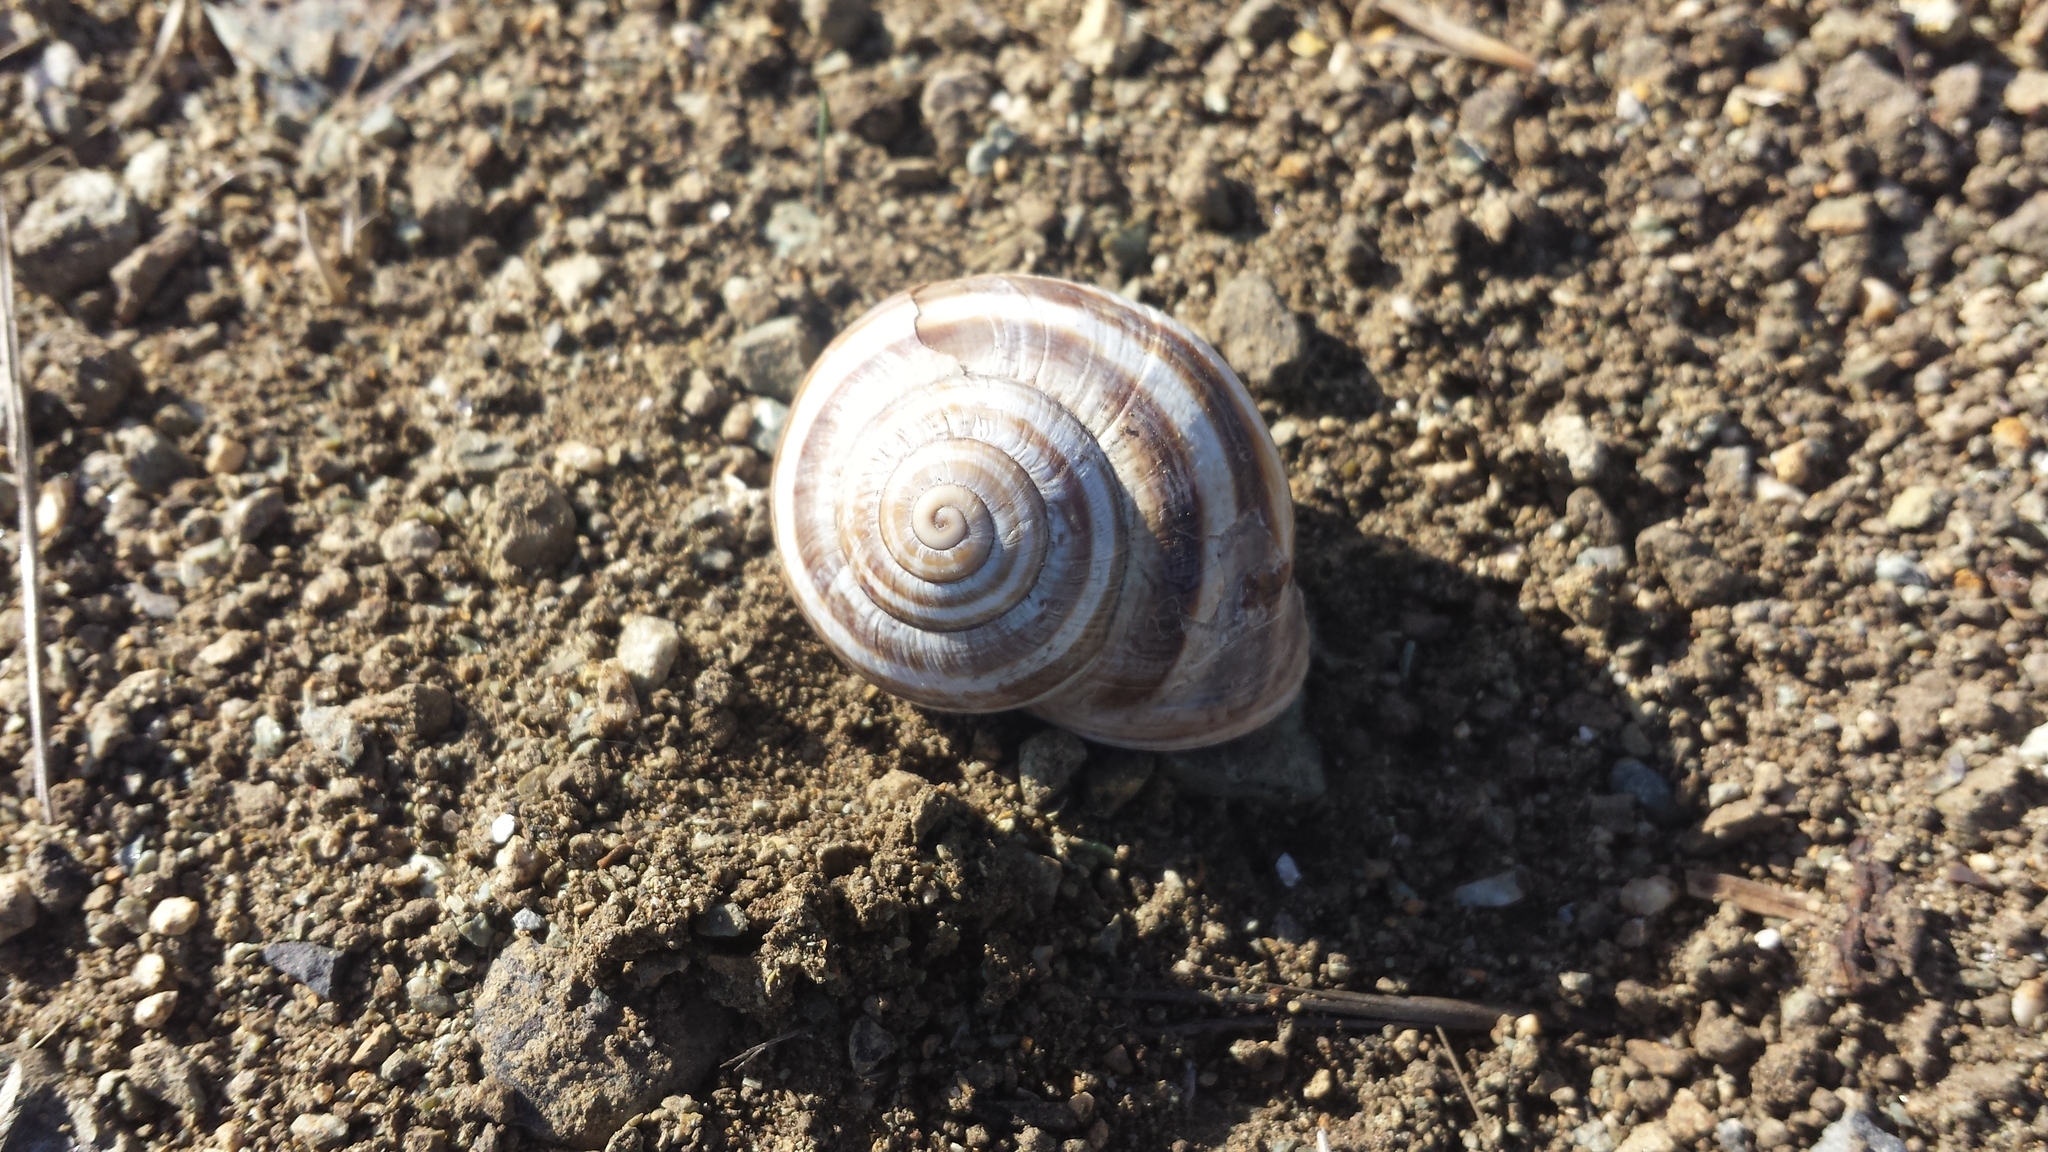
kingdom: Animalia
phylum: Mollusca
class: Gastropoda
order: Stylommatophora
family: Helicidae
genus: Otala
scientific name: Otala lactea
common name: Milk snail
